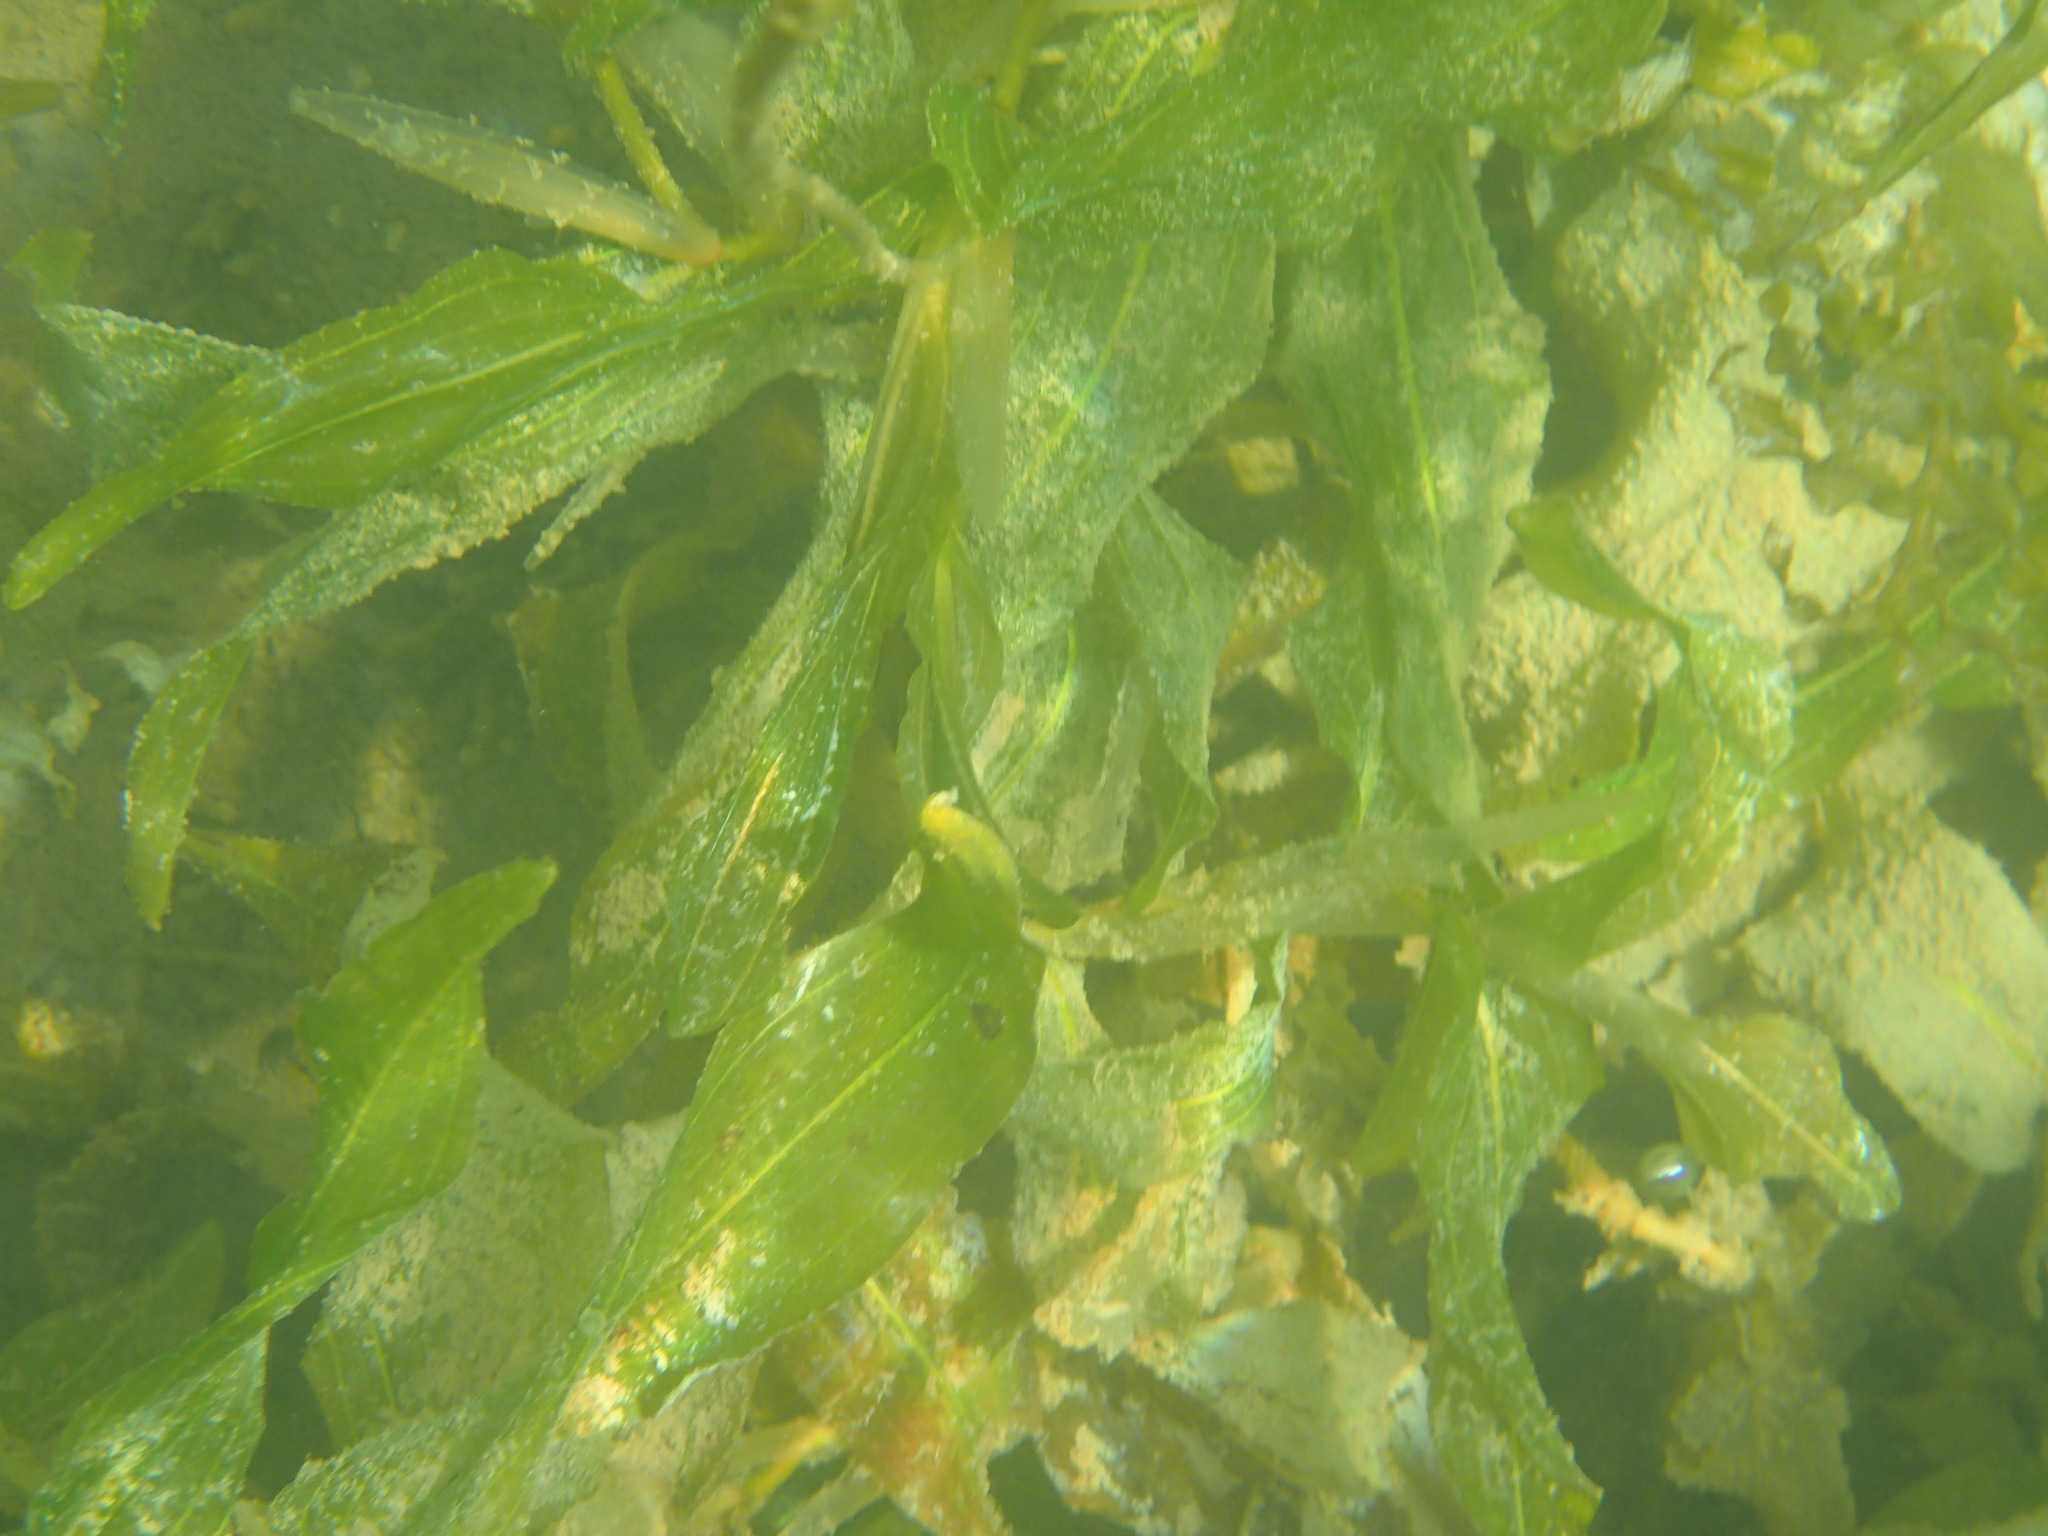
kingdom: Plantae
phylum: Tracheophyta
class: Liliopsida
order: Alismatales
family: Potamogetonaceae
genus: Potamogeton
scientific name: Potamogeton richardsonii
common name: Richardson's pondweed
